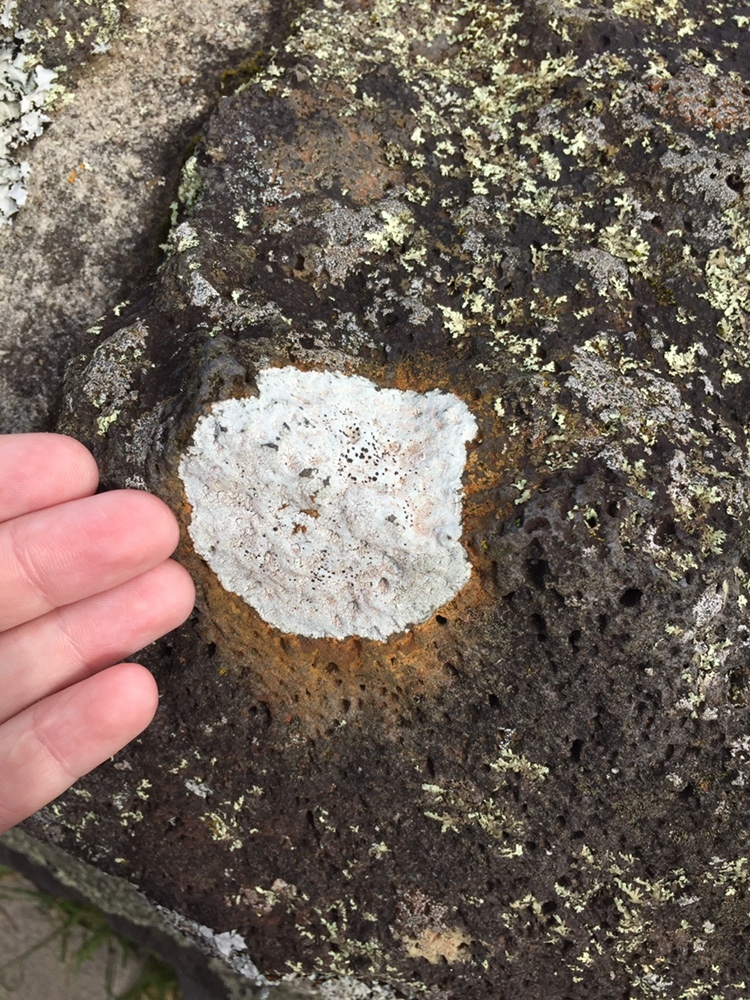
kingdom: Fungi
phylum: Ascomycota
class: Lecanoromycetes
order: Lecideales
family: Lecideaceae
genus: Paraporpidia
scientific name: Paraporpidia leptocarpa
